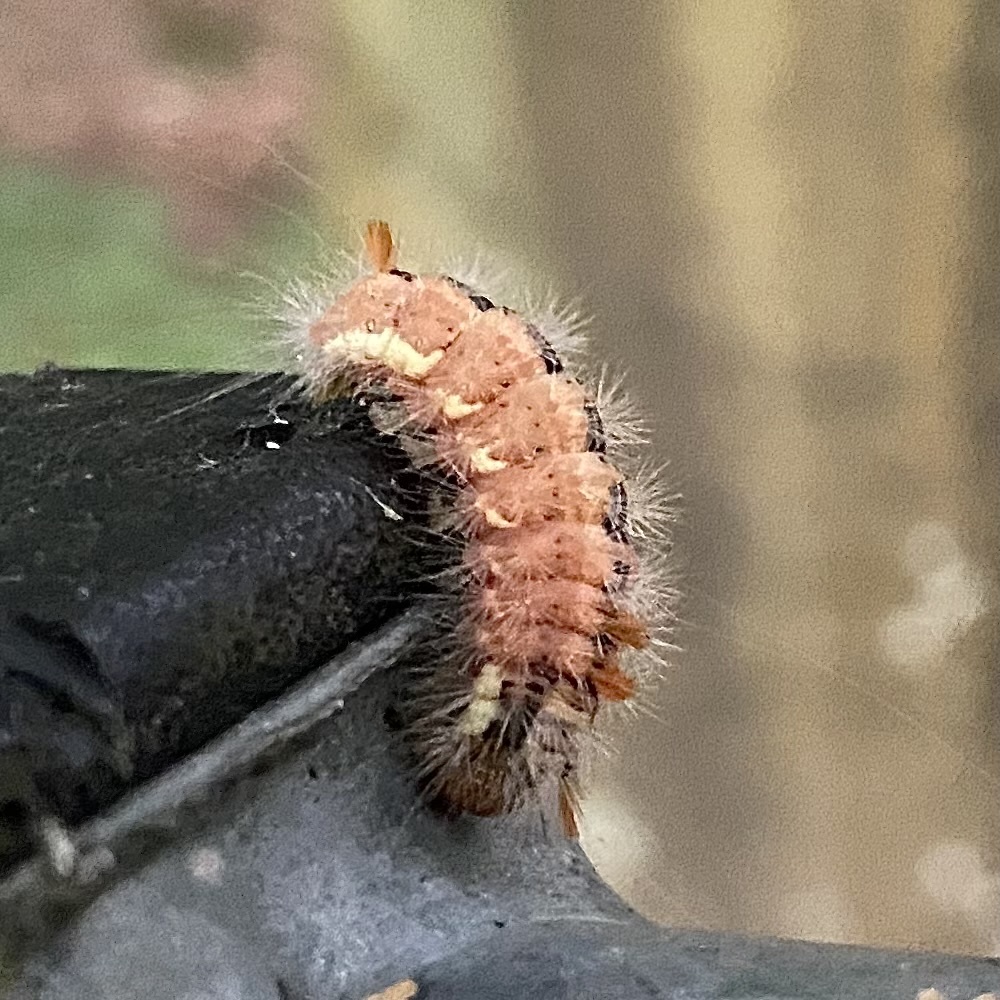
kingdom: Animalia
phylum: Arthropoda
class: Insecta
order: Lepidoptera
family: Noctuidae
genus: Colocasia
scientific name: Colocasia coryli
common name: Nut-tree tussock
